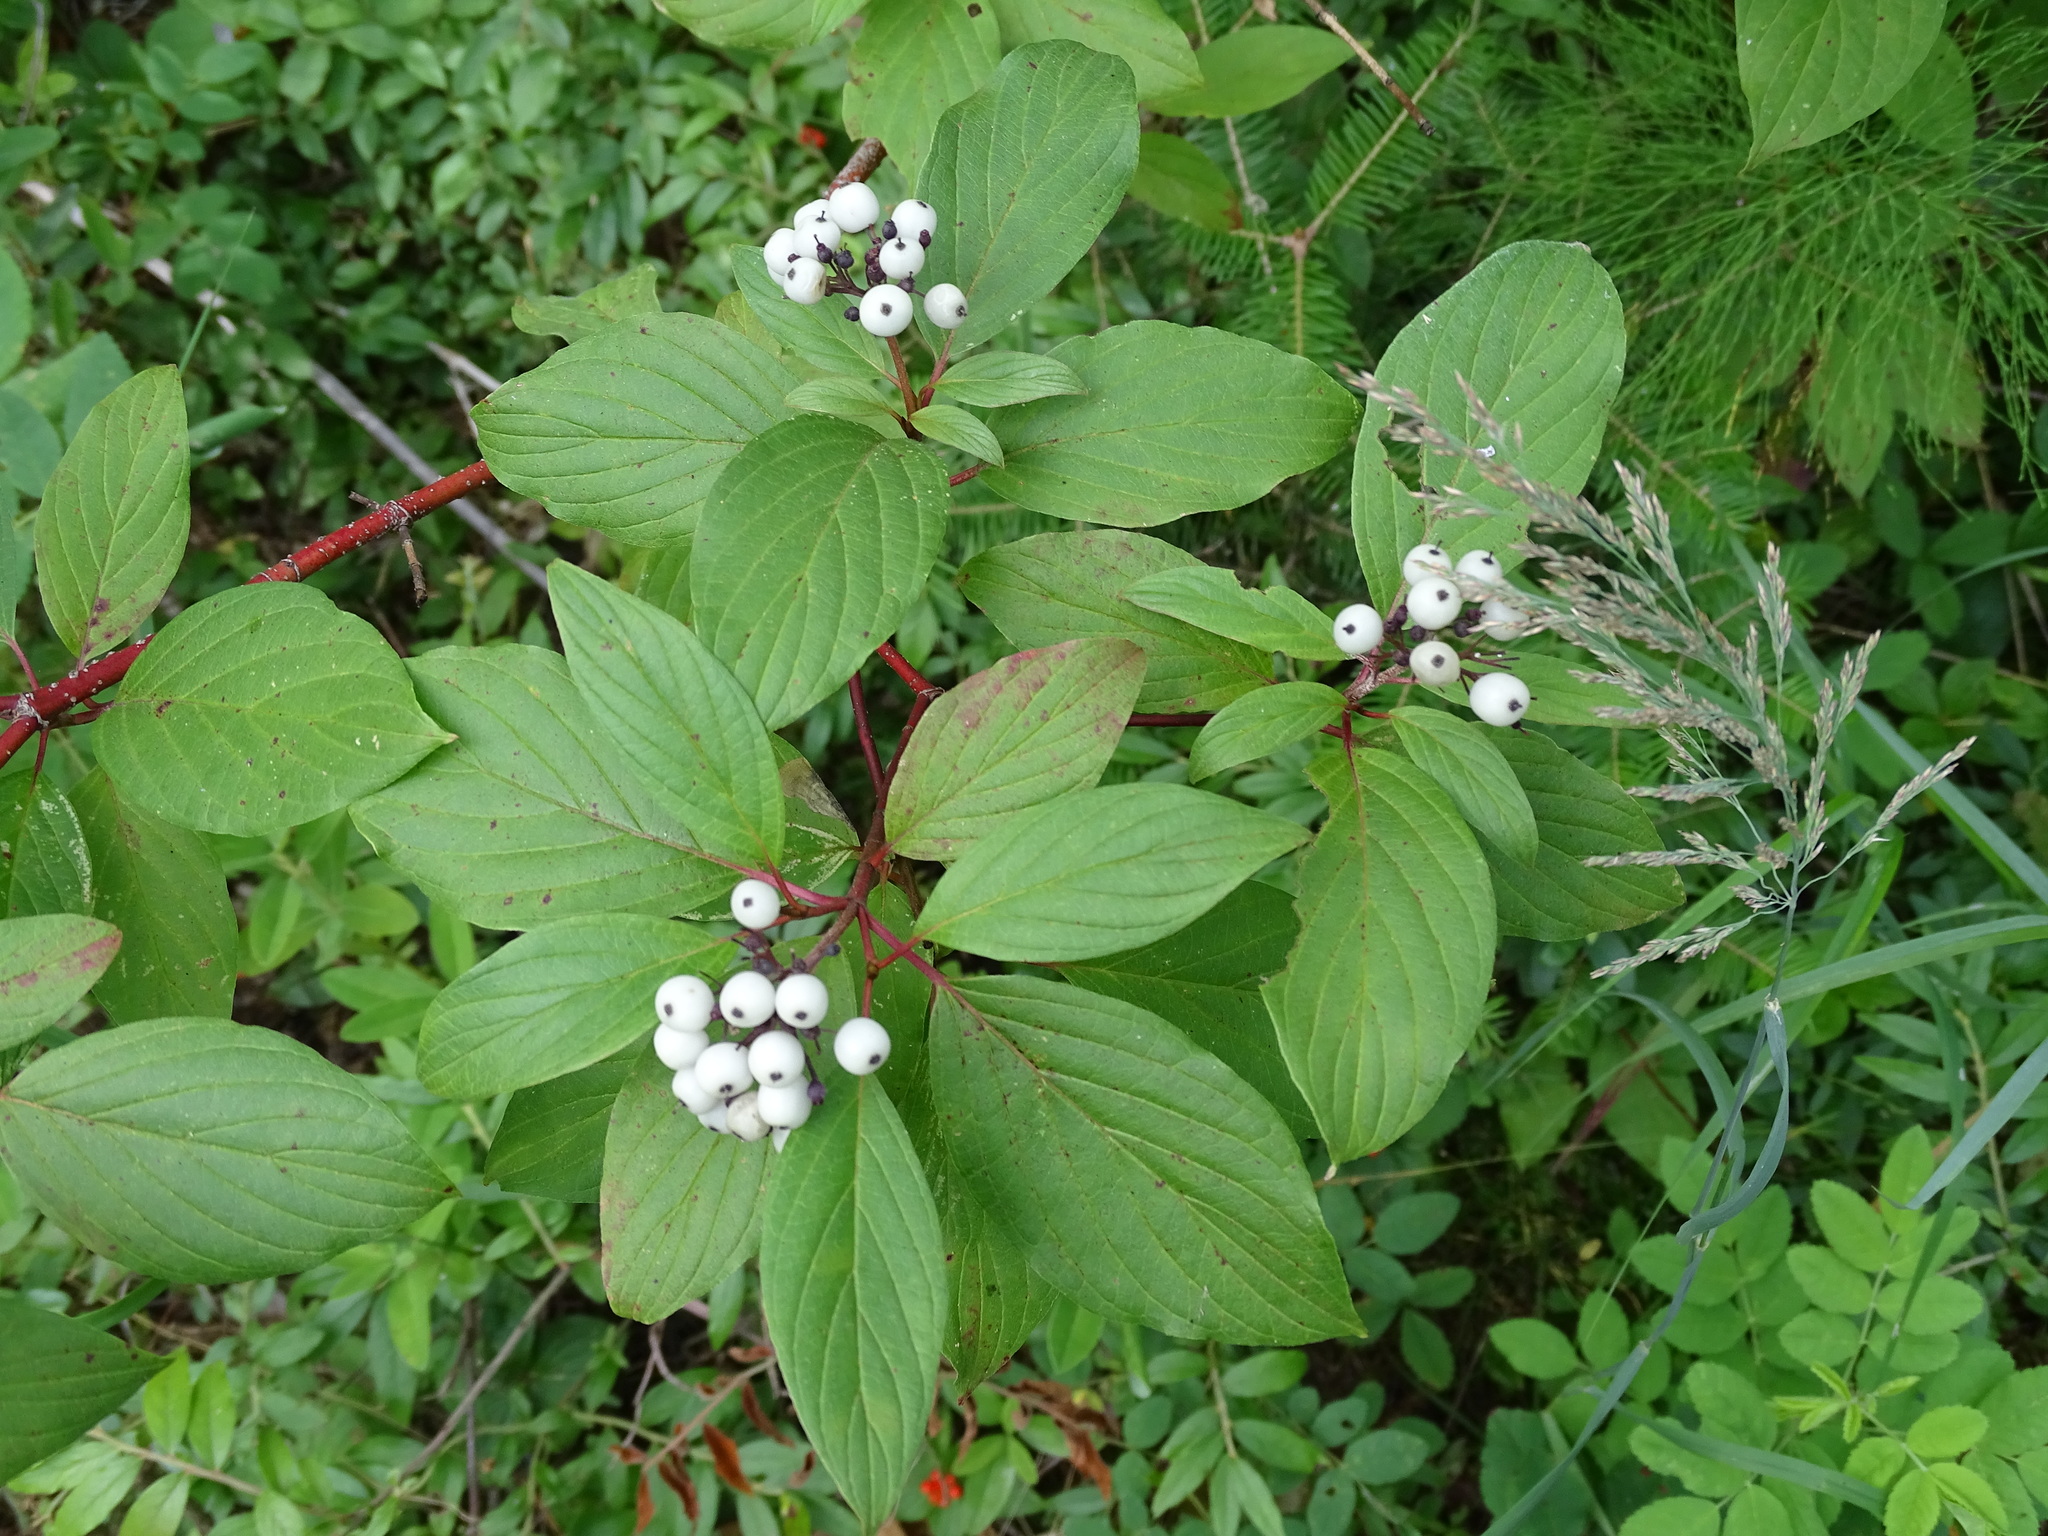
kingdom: Plantae
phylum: Tracheophyta
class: Magnoliopsida
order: Cornales
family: Cornaceae
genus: Cornus
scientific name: Cornus sericea
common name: Red-osier dogwood
